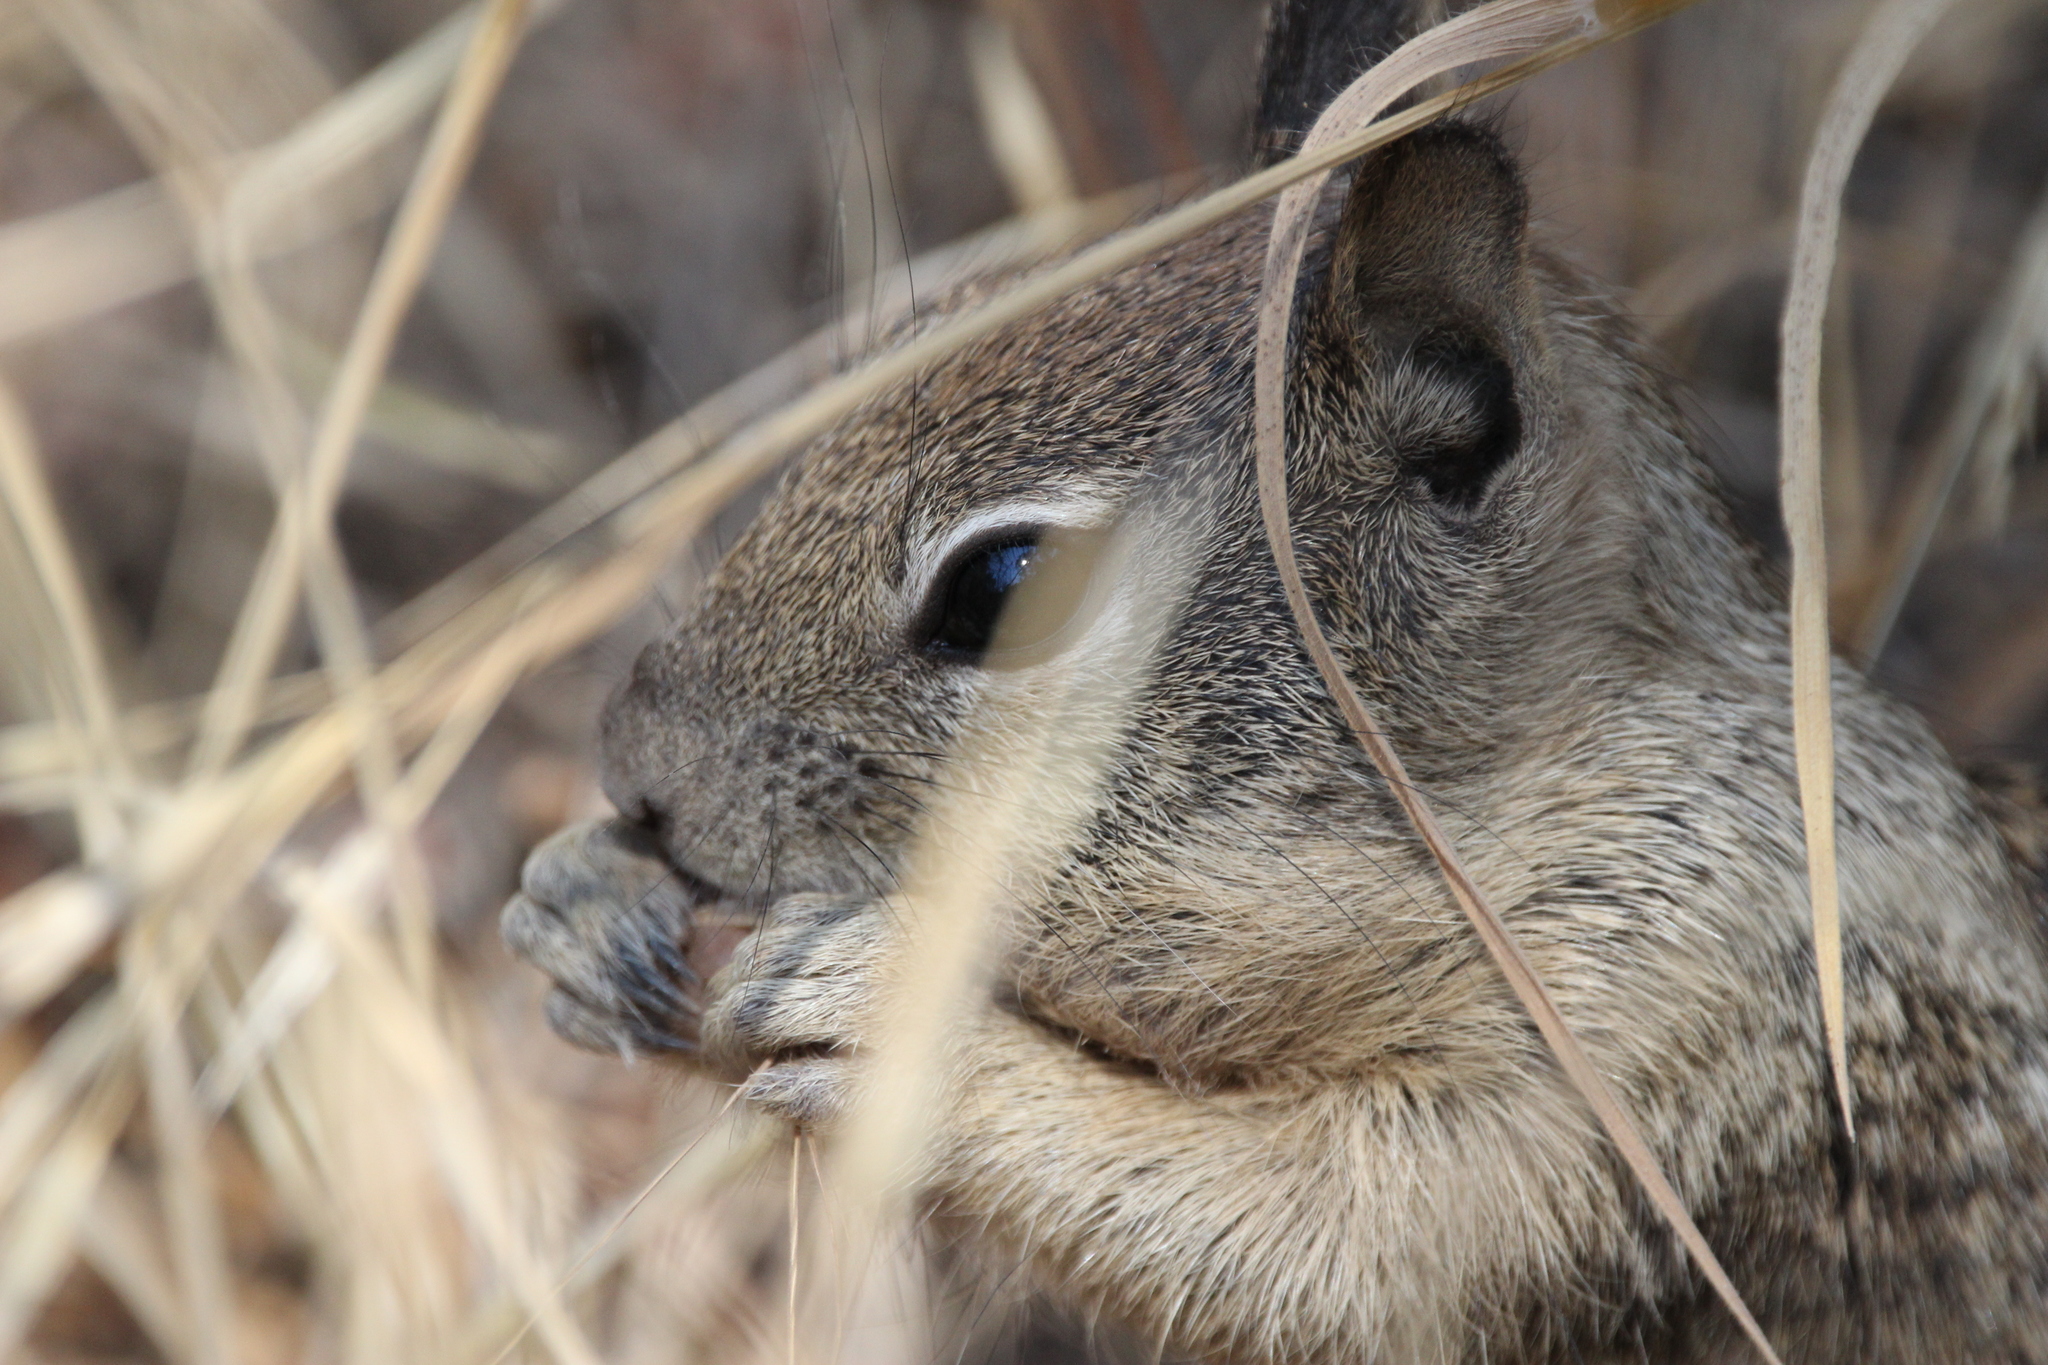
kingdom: Animalia
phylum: Chordata
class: Mammalia
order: Rodentia
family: Sciuridae
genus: Otospermophilus
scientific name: Otospermophilus beecheyi
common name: California ground squirrel
